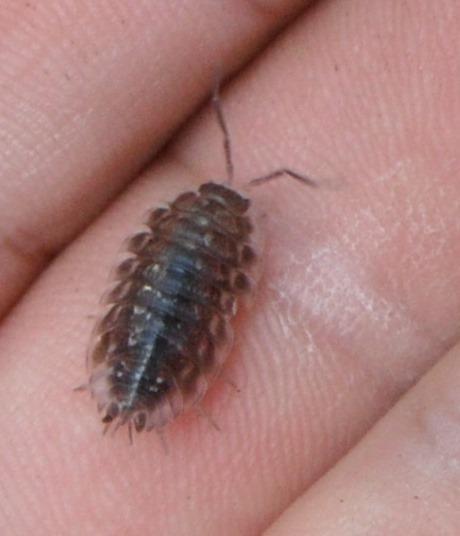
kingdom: Animalia
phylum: Arthropoda
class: Malacostraca
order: Isopoda
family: Oniscidae
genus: Oniscus
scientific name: Oniscus asellus
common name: Common shiny woodlouse
